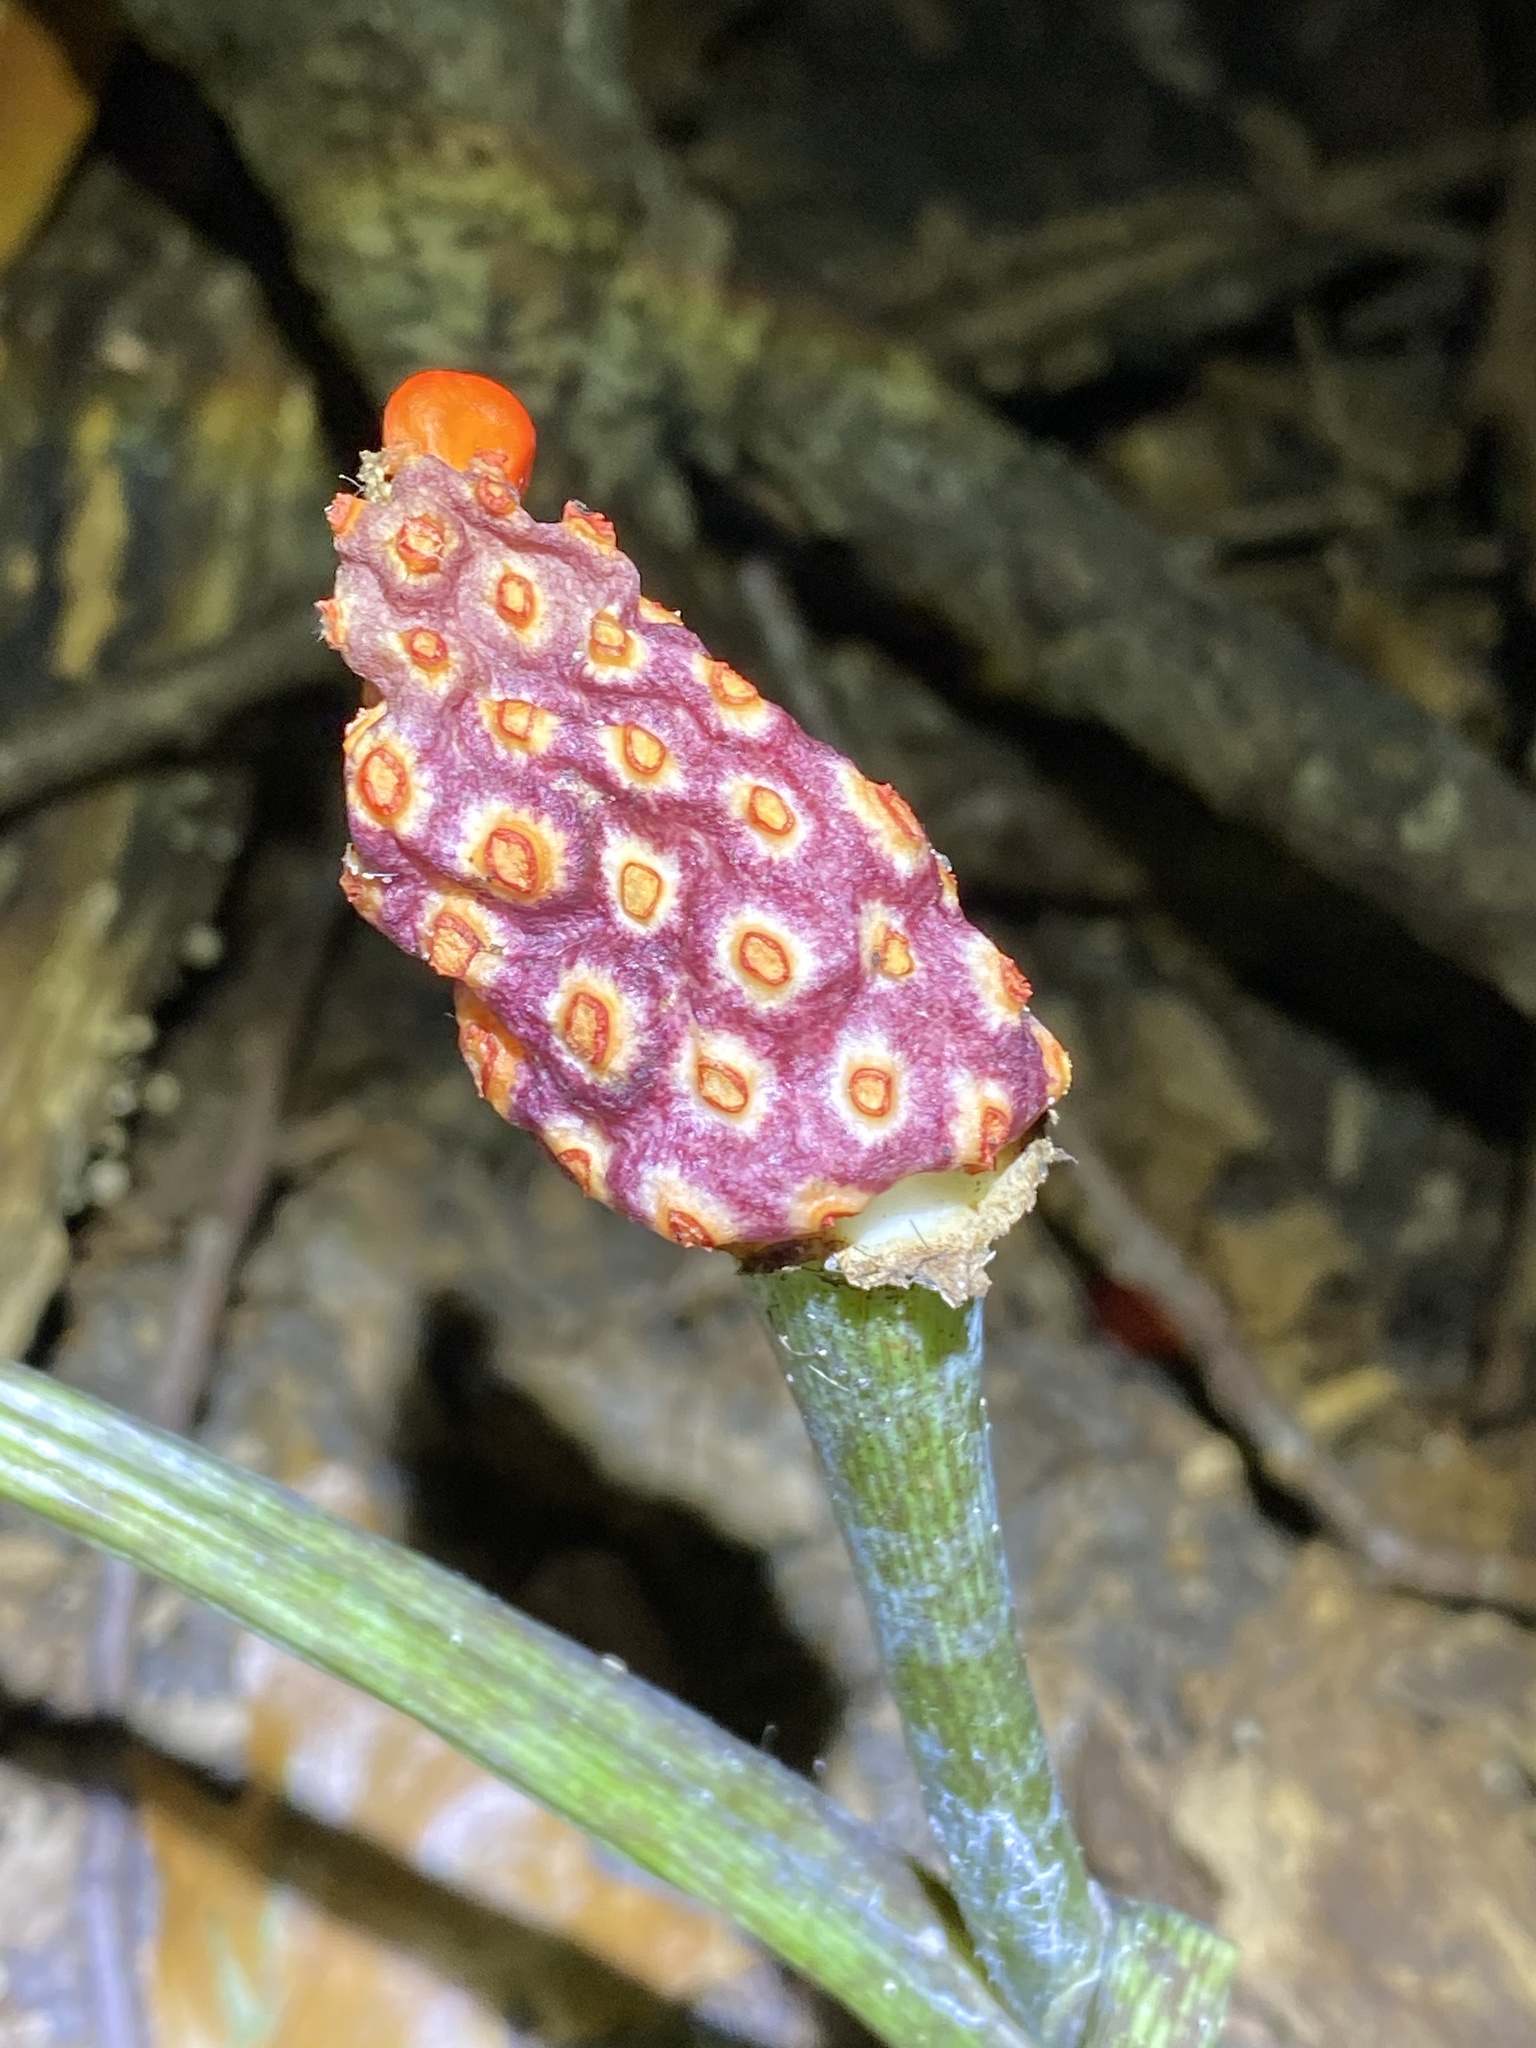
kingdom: Plantae
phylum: Tracheophyta
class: Liliopsida
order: Alismatales
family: Araceae
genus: Arisaema
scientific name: Arisaema triphyllum
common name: Jack-in-the-pulpit
